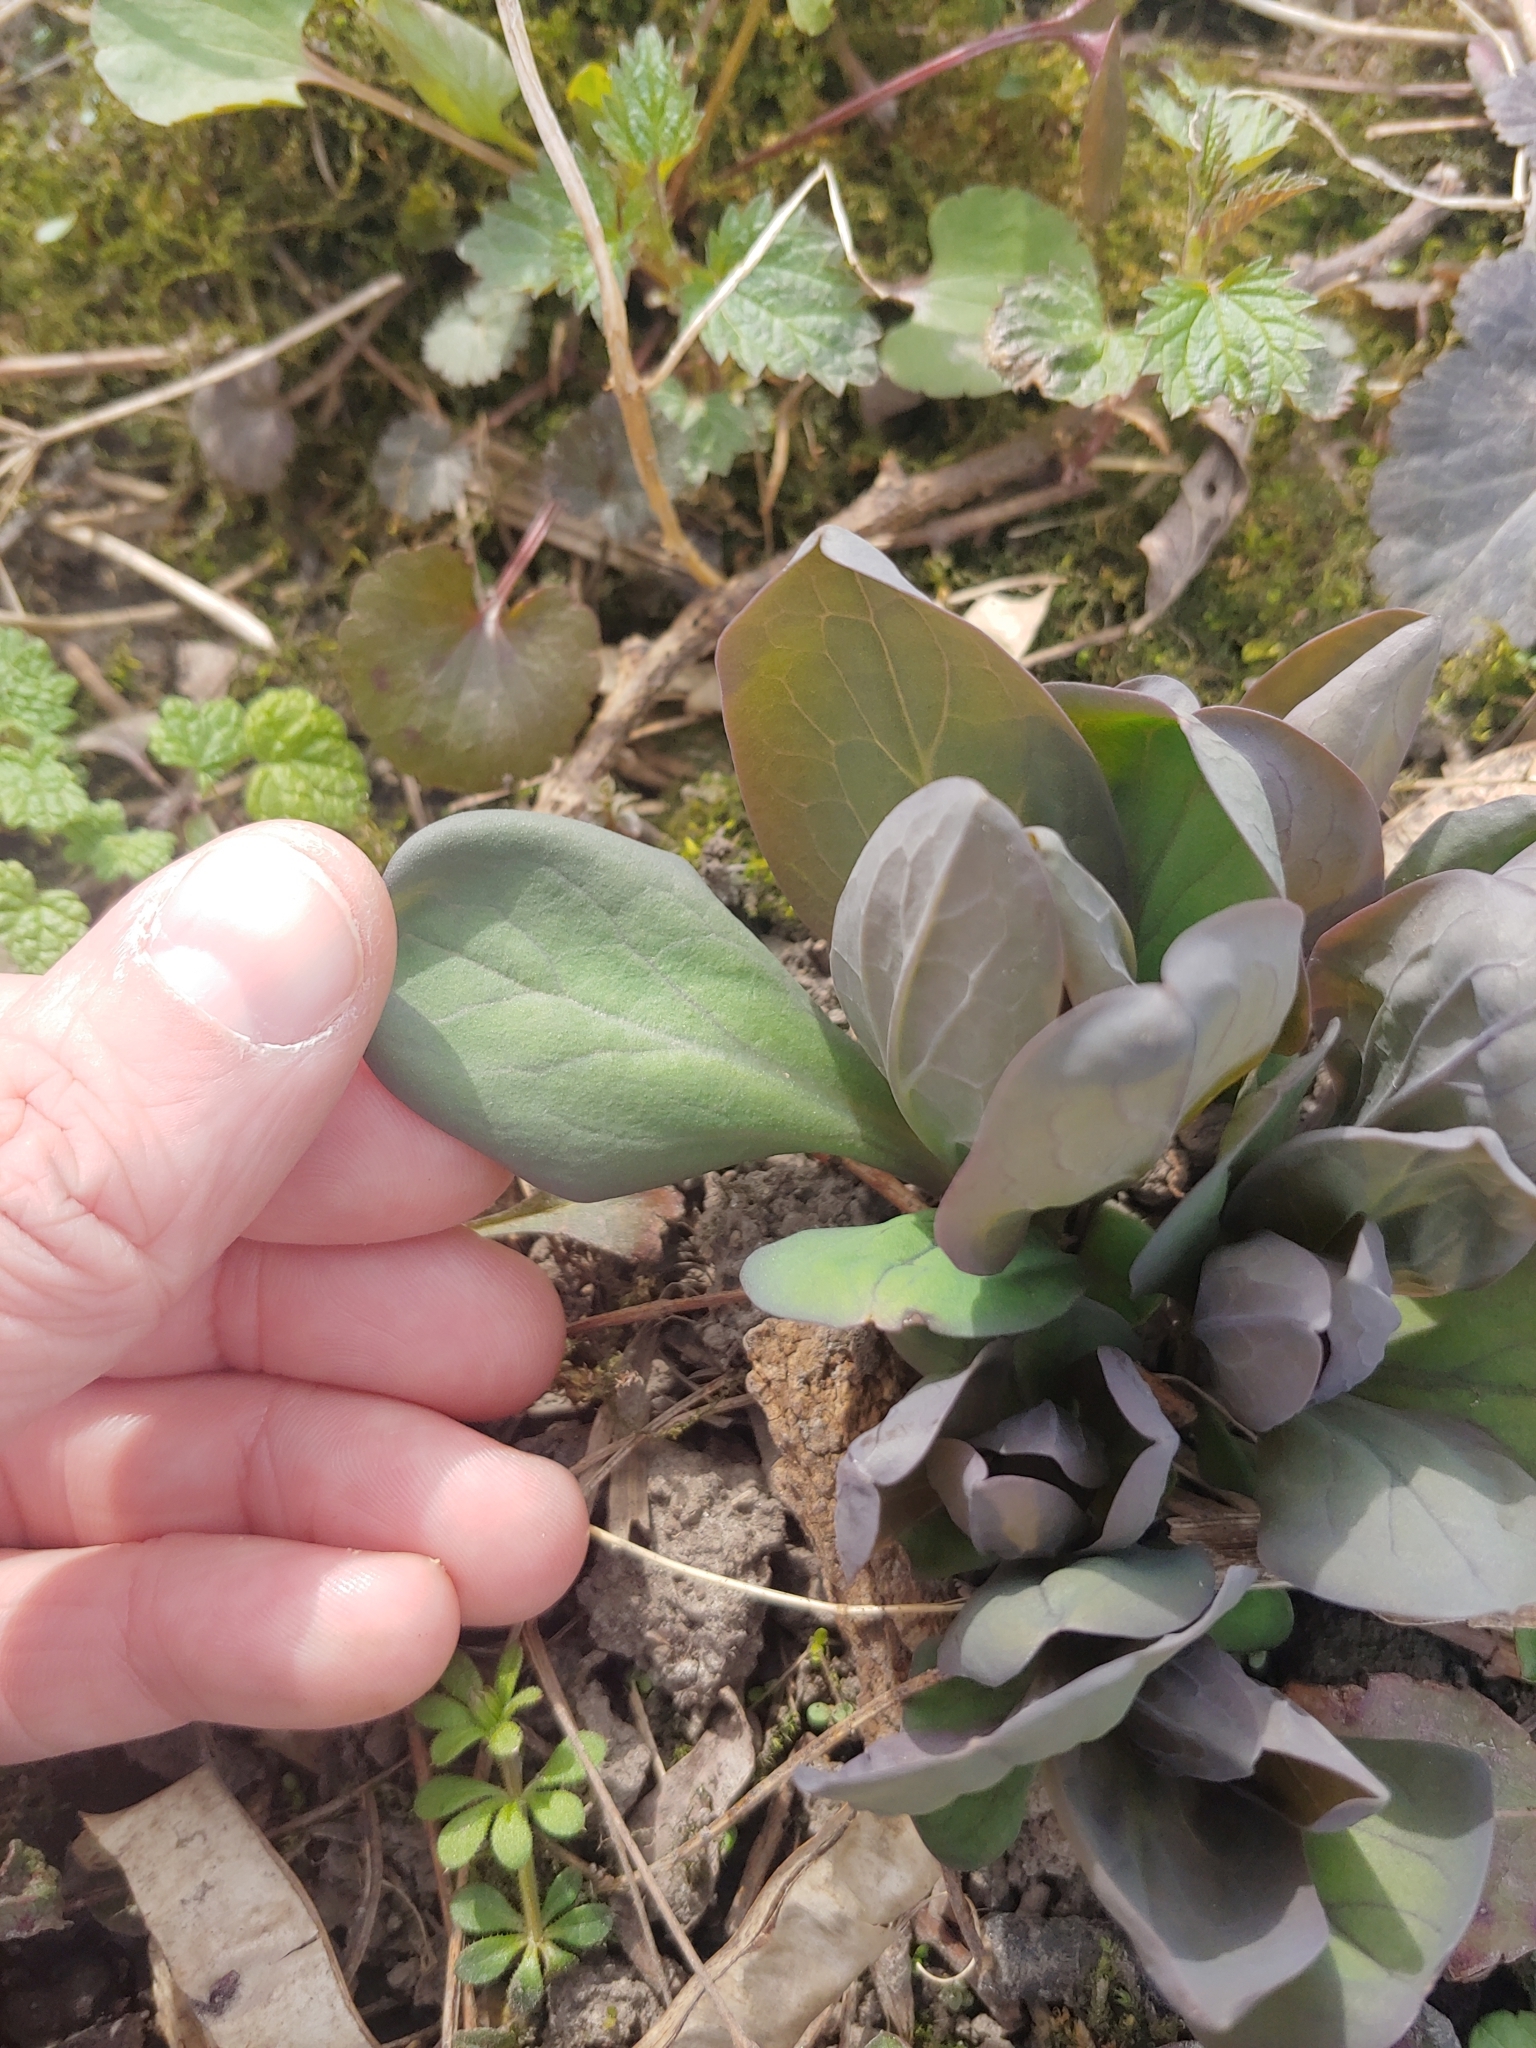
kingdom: Plantae
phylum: Tracheophyta
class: Magnoliopsida
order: Boraginales
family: Boraginaceae
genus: Mertensia
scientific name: Mertensia virginica
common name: Virginia bluebells
